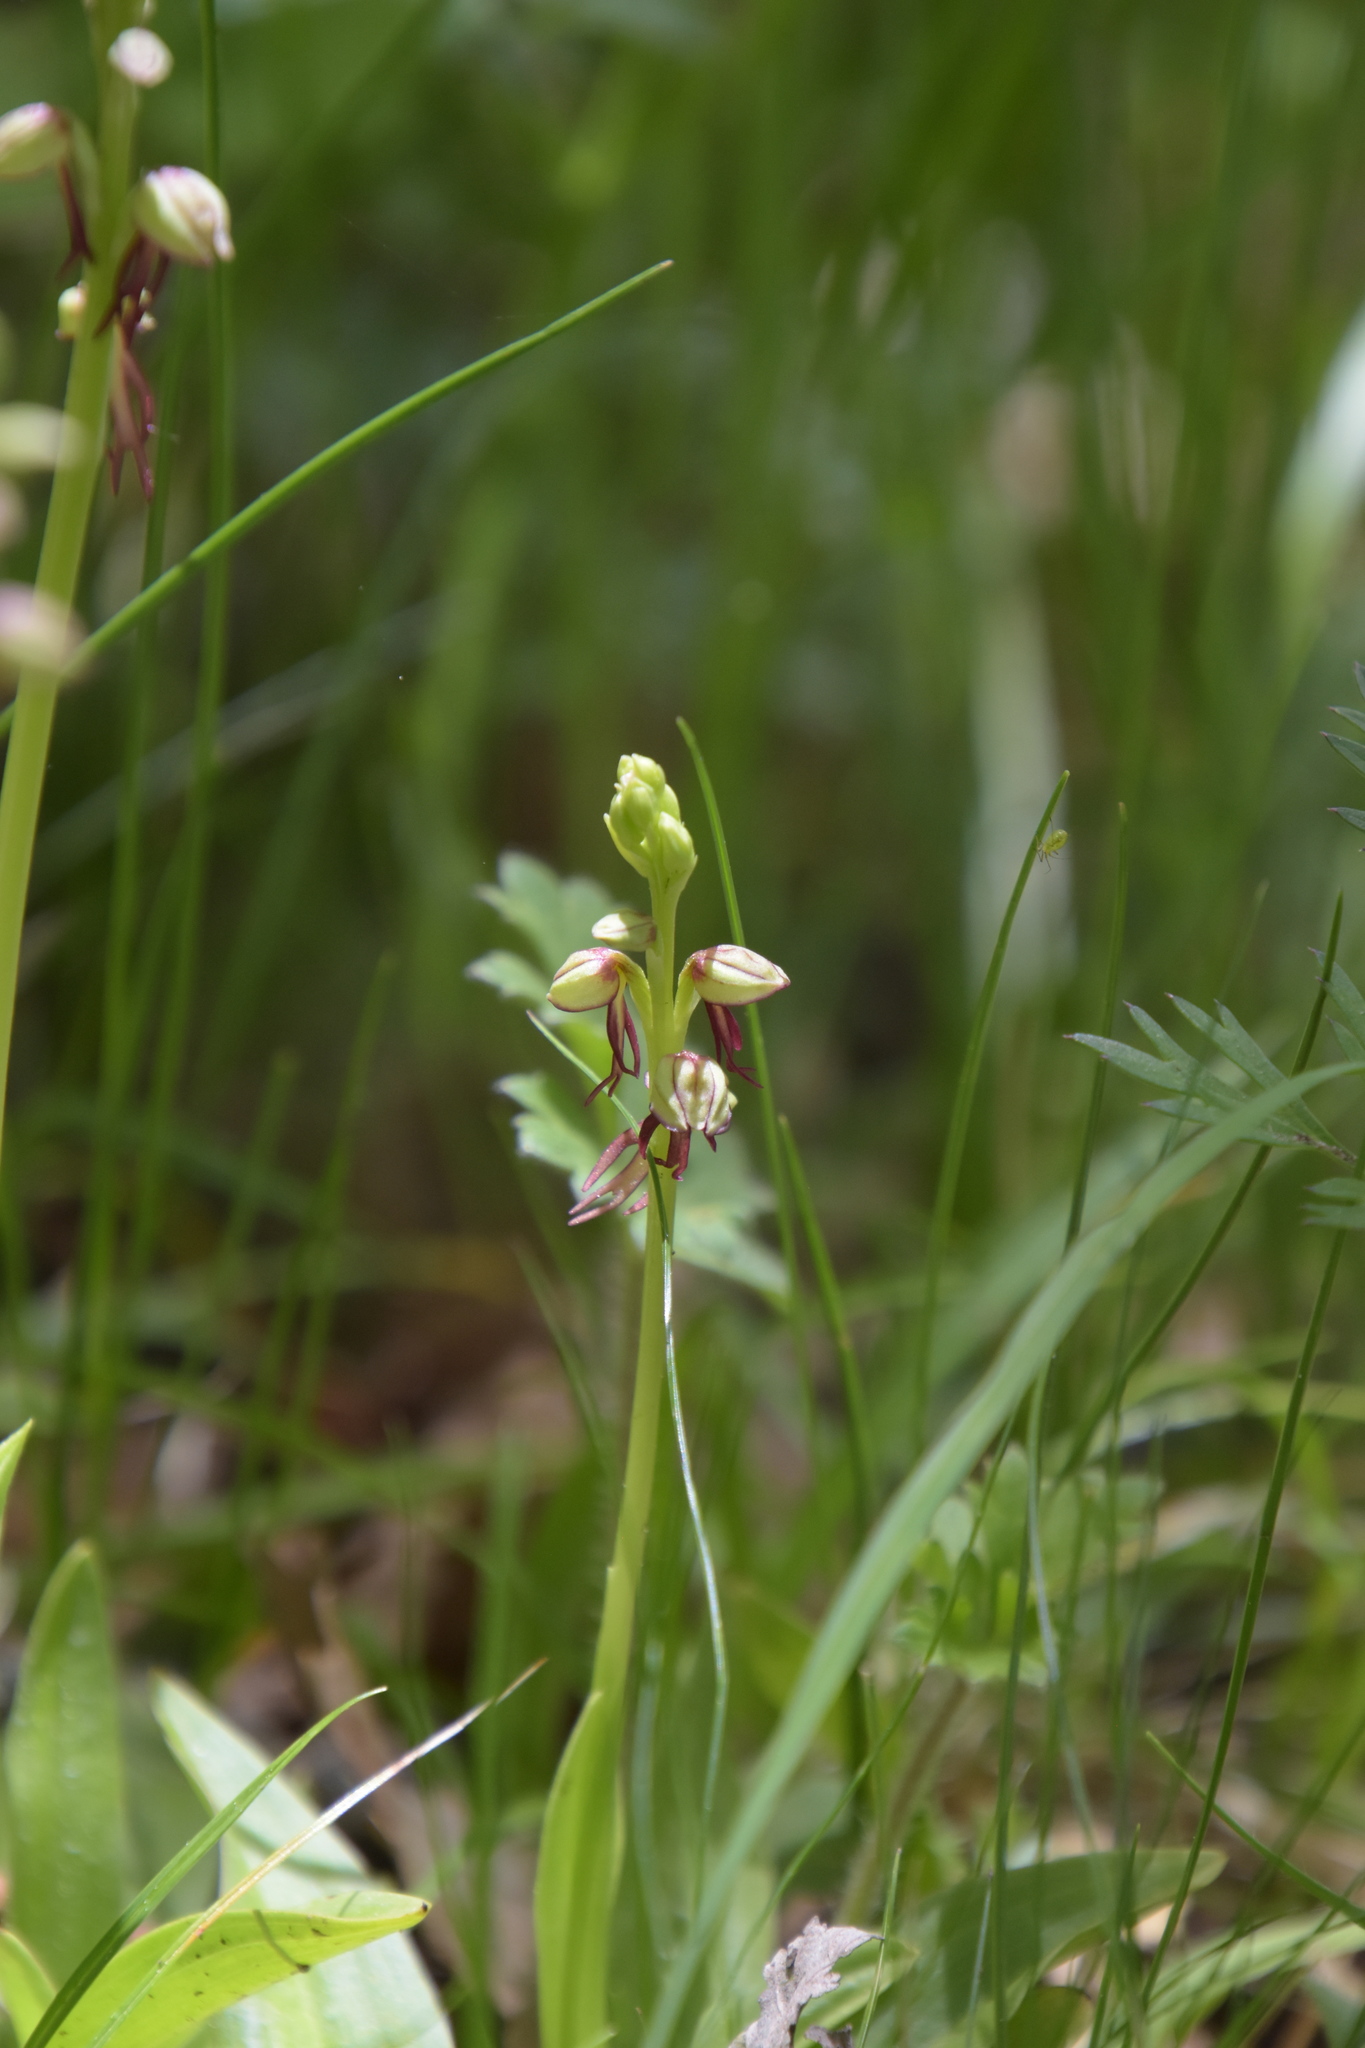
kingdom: Plantae
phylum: Tracheophyta
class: Liliopsida
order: Asparagales
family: Orchidaceae
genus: Orchis
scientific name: Orchis anthropophora
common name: Man orchid
